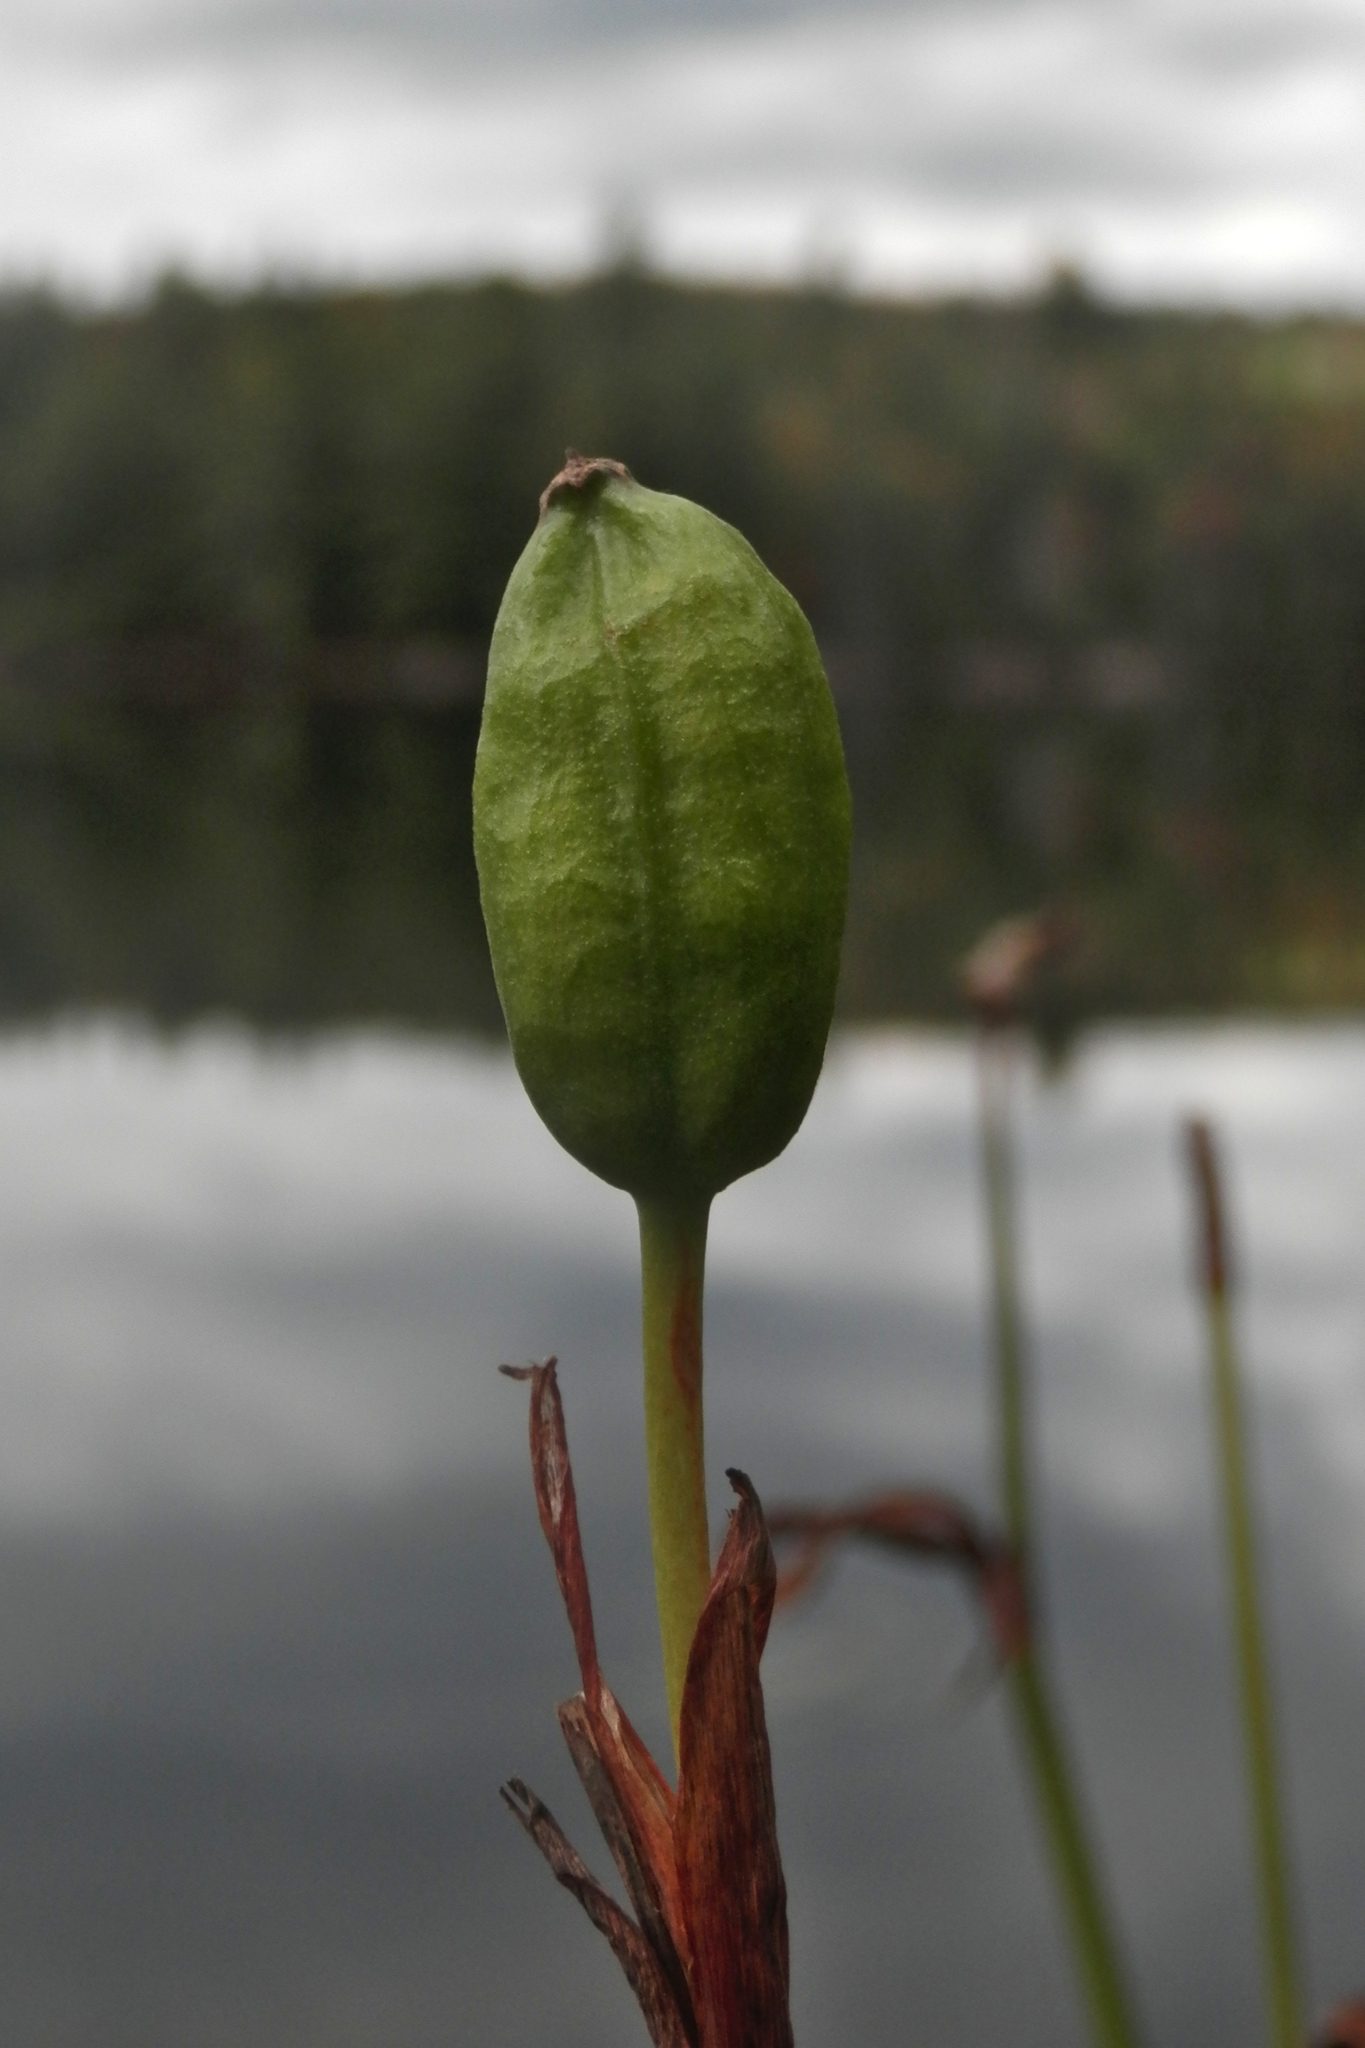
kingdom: Plantae
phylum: Tracheophyta
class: Liliopsida
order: Asparagales
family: Iridaceae
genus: Iris
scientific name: Iris versicolor
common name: Purple iris
